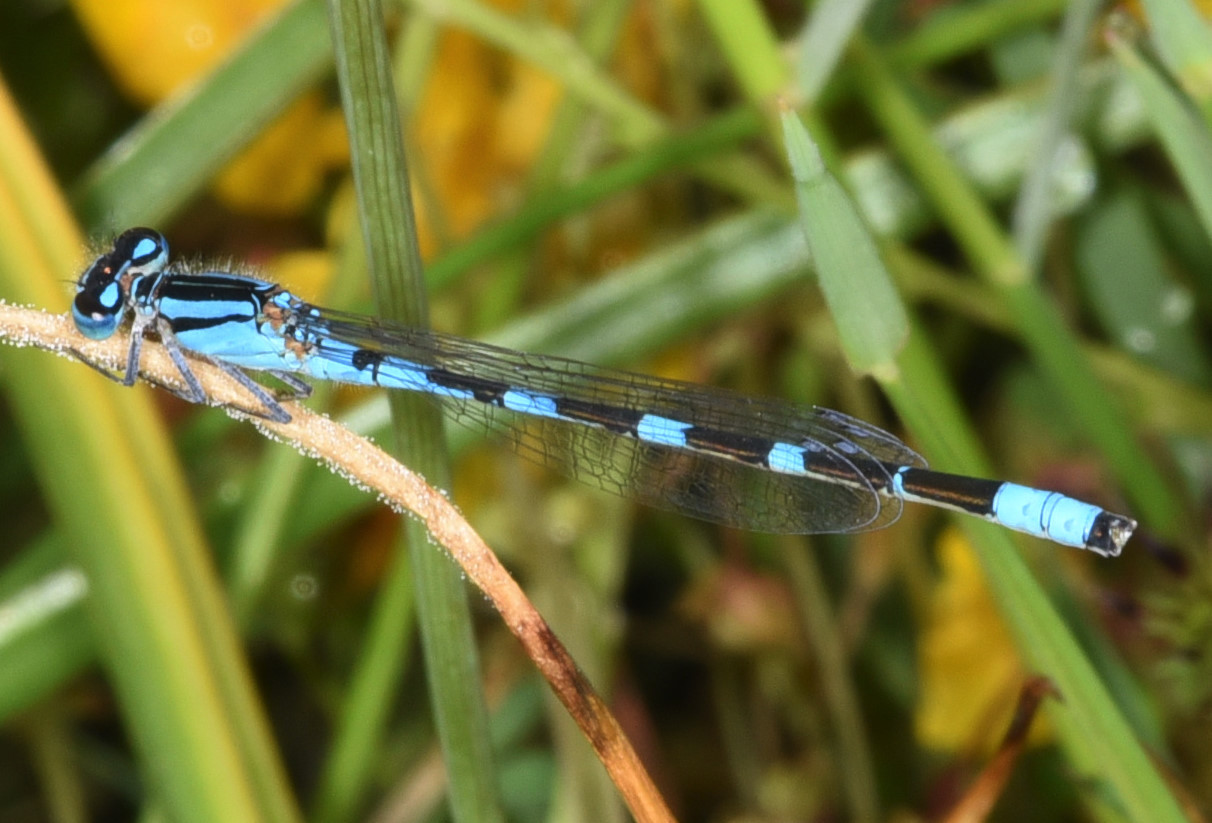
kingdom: Animalia
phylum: Arthropoda
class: Insecta
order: Odonata
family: Coenagrionidae
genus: Enallagma
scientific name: Enallagma carunculatum
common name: Tule bluet
